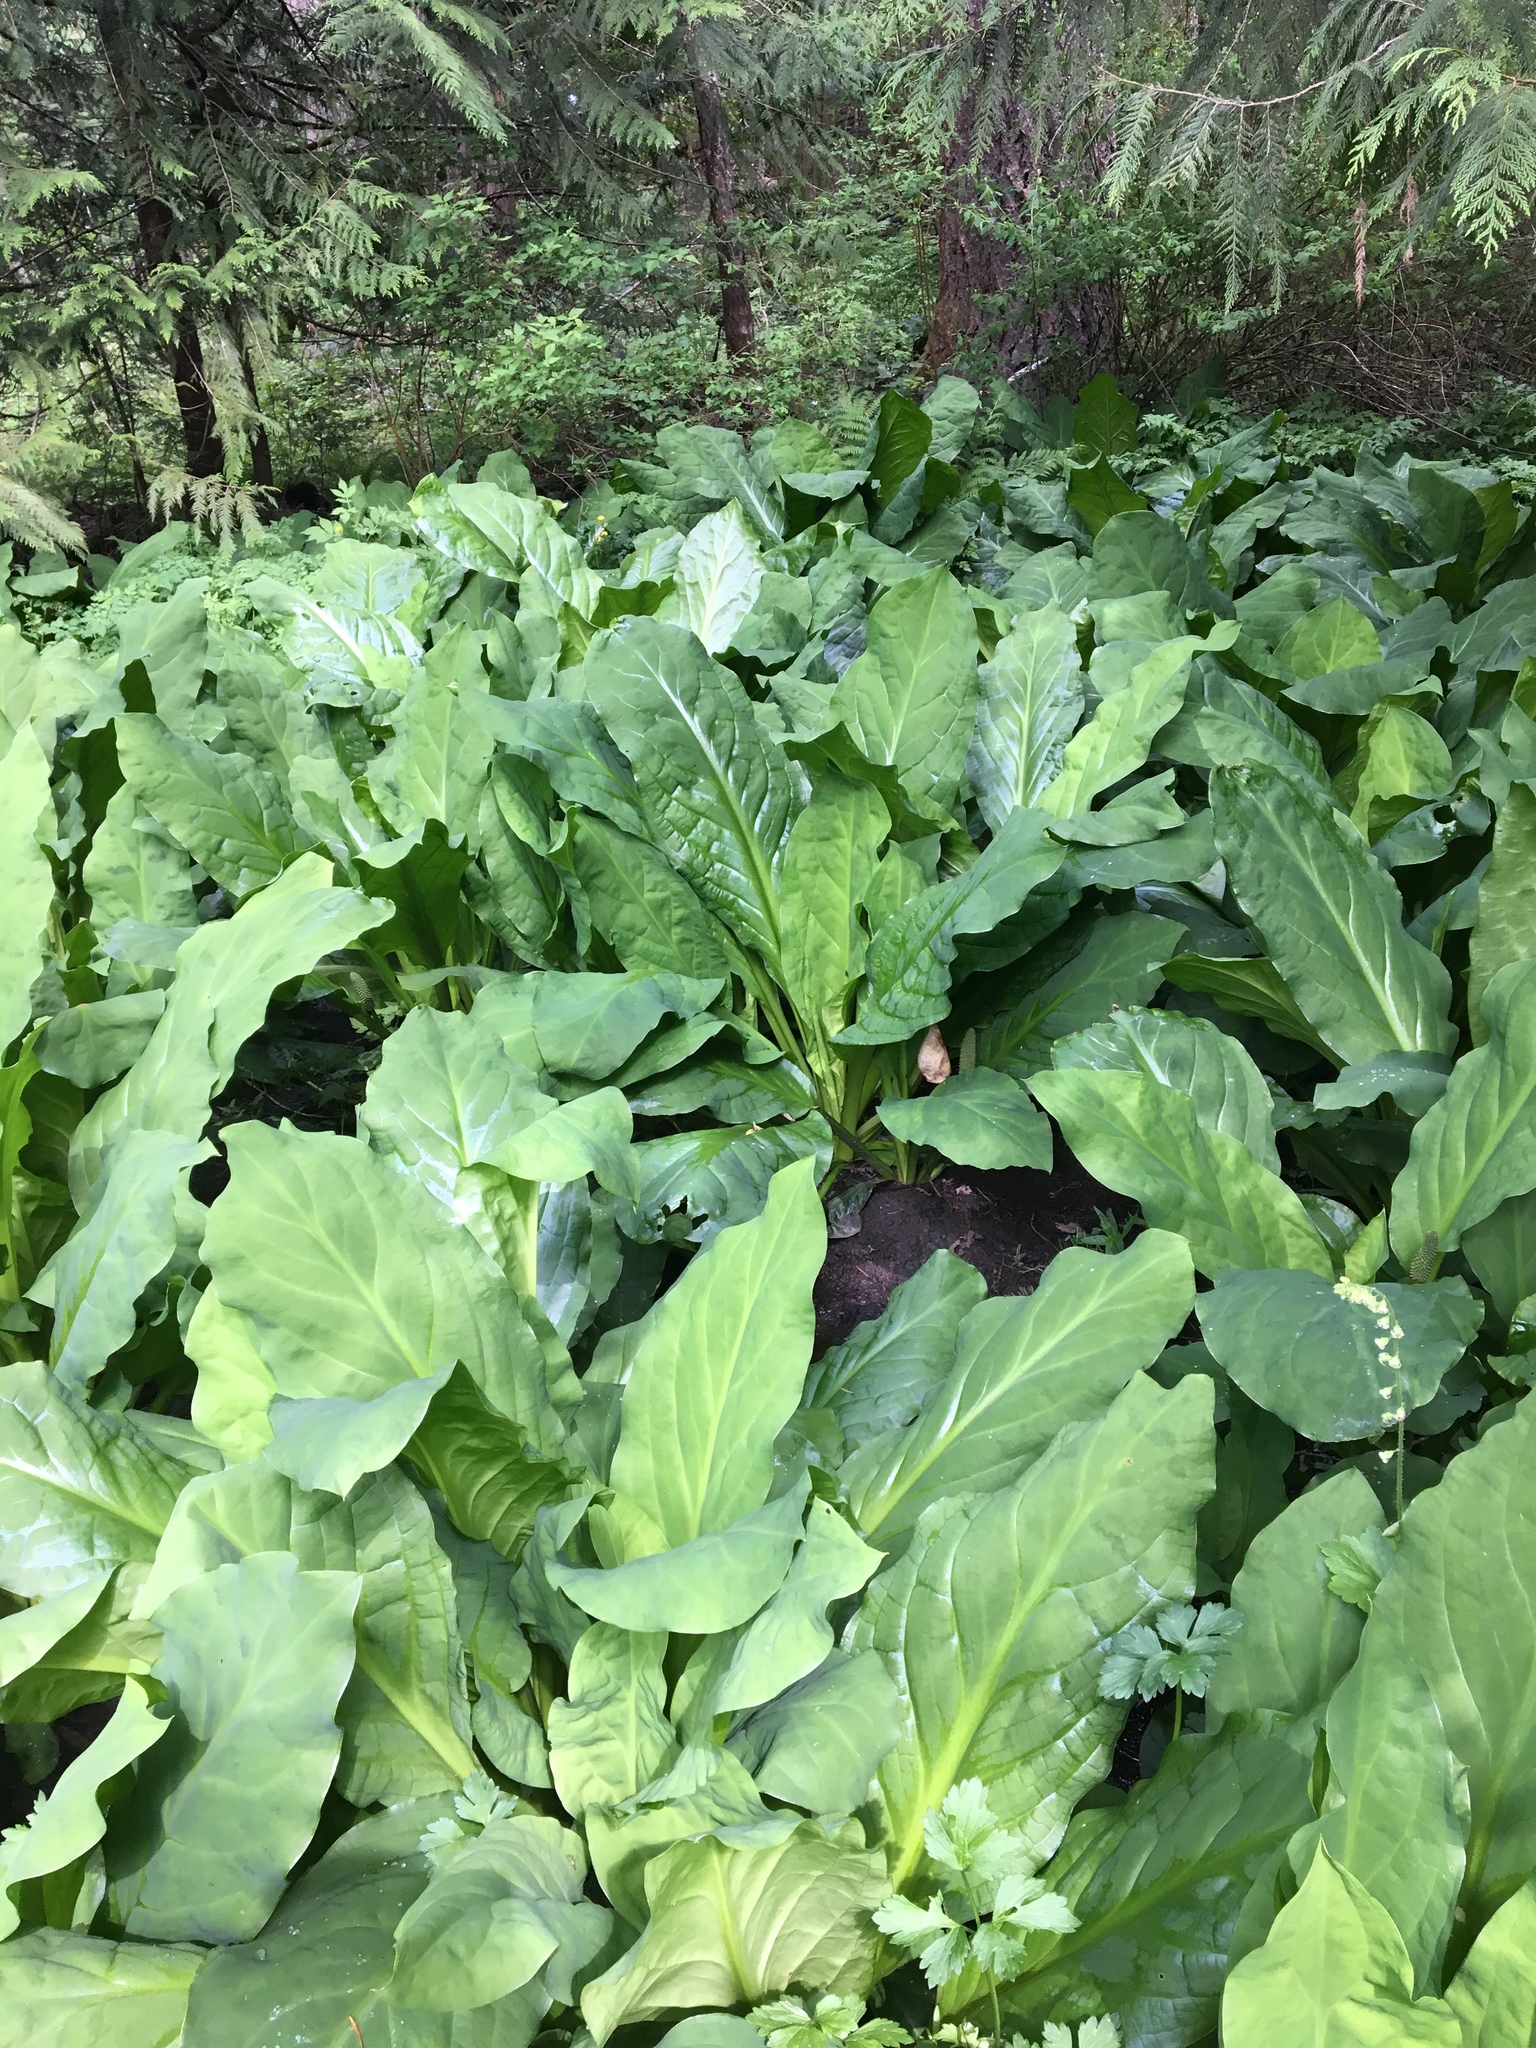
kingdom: Plantae
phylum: Tracheophyta
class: Liliopsida
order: Alismatales
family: Araceae
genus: Lysichiton
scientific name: Lysichiton americanus
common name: American skunk cabbage
